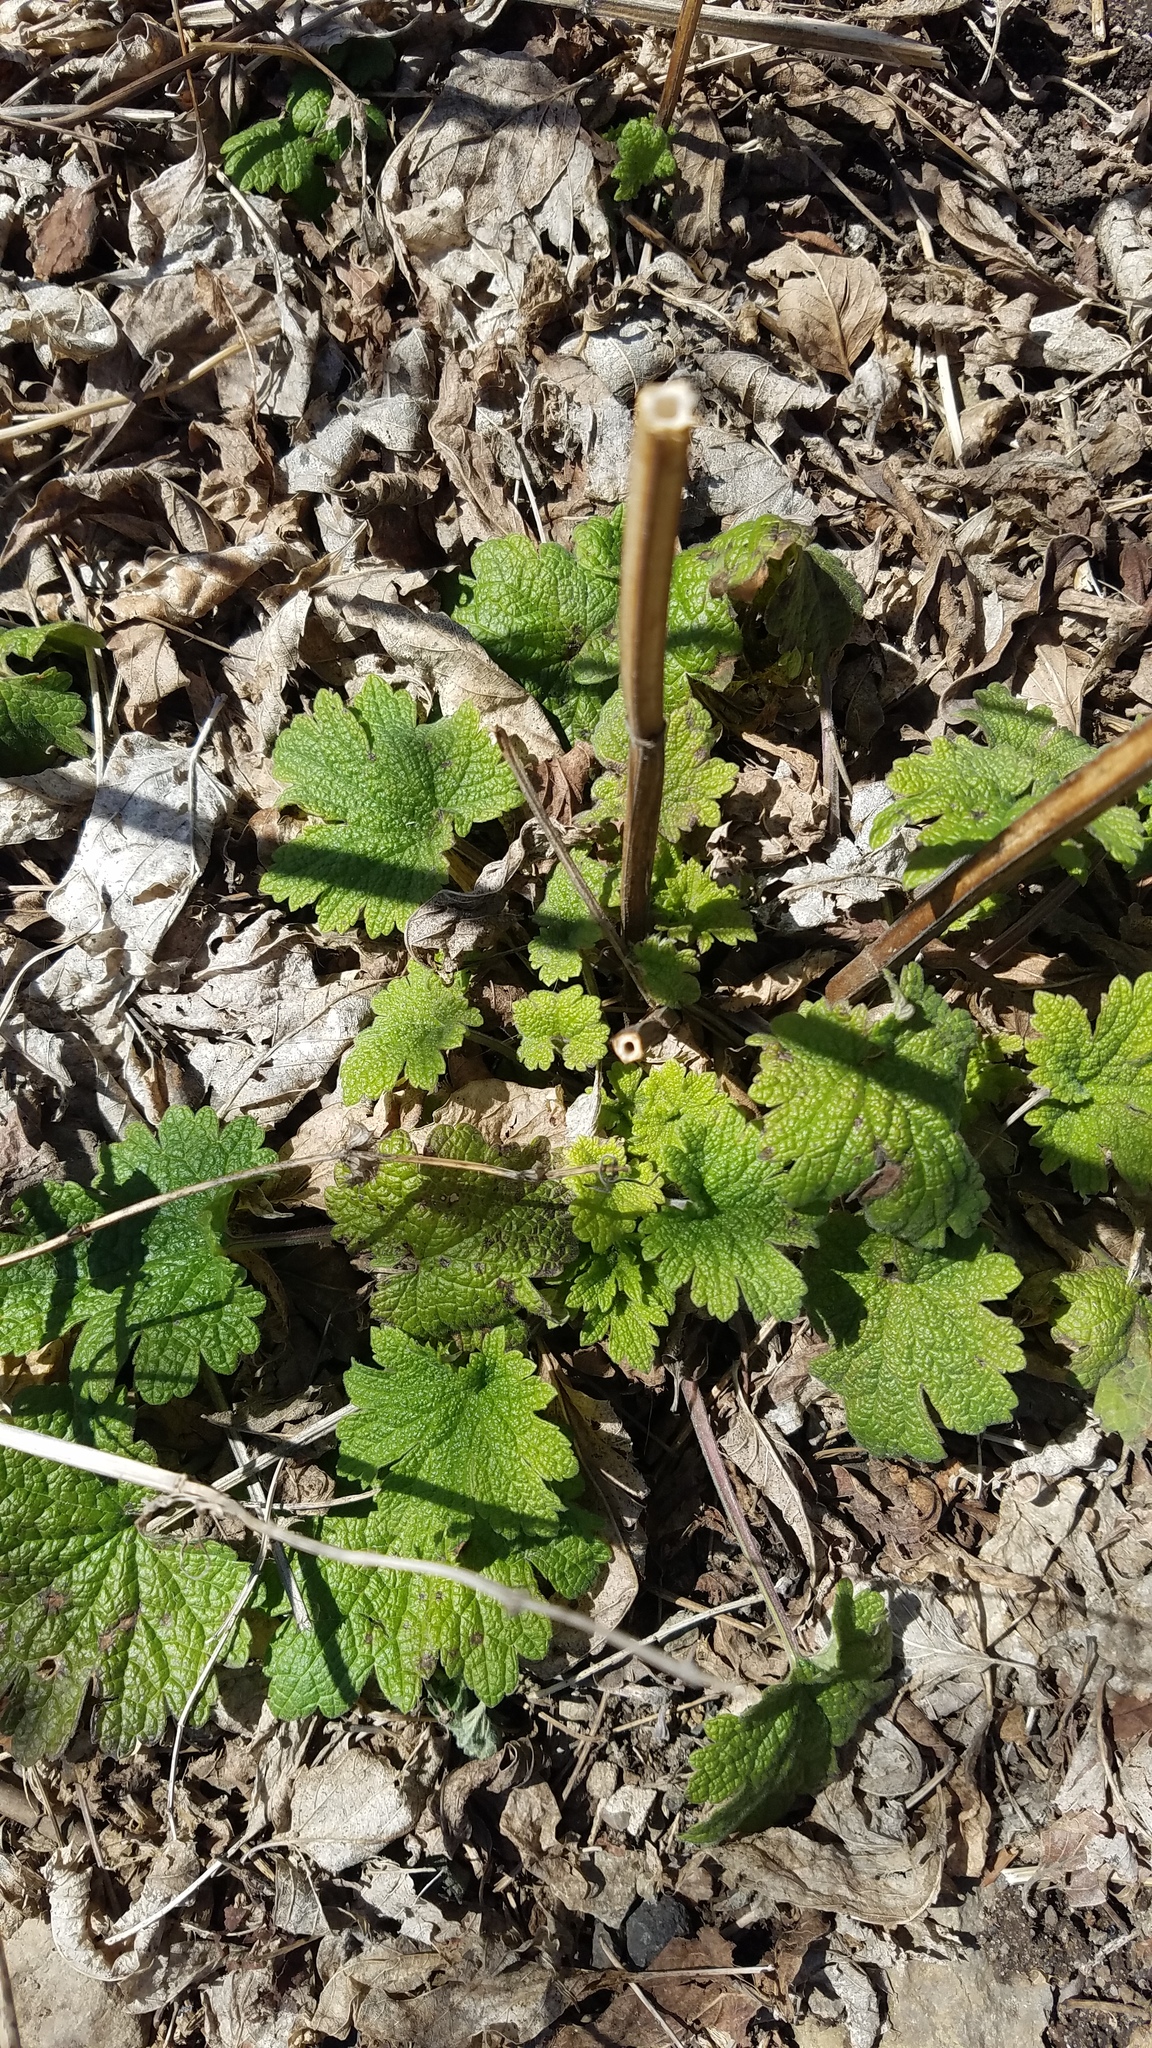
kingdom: Plantae
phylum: Tracheophyta
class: Magnoliopsida
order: Lamiales
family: Lamiaceae
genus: Leonurus
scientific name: Leonurus cardiaca
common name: Motherwort
